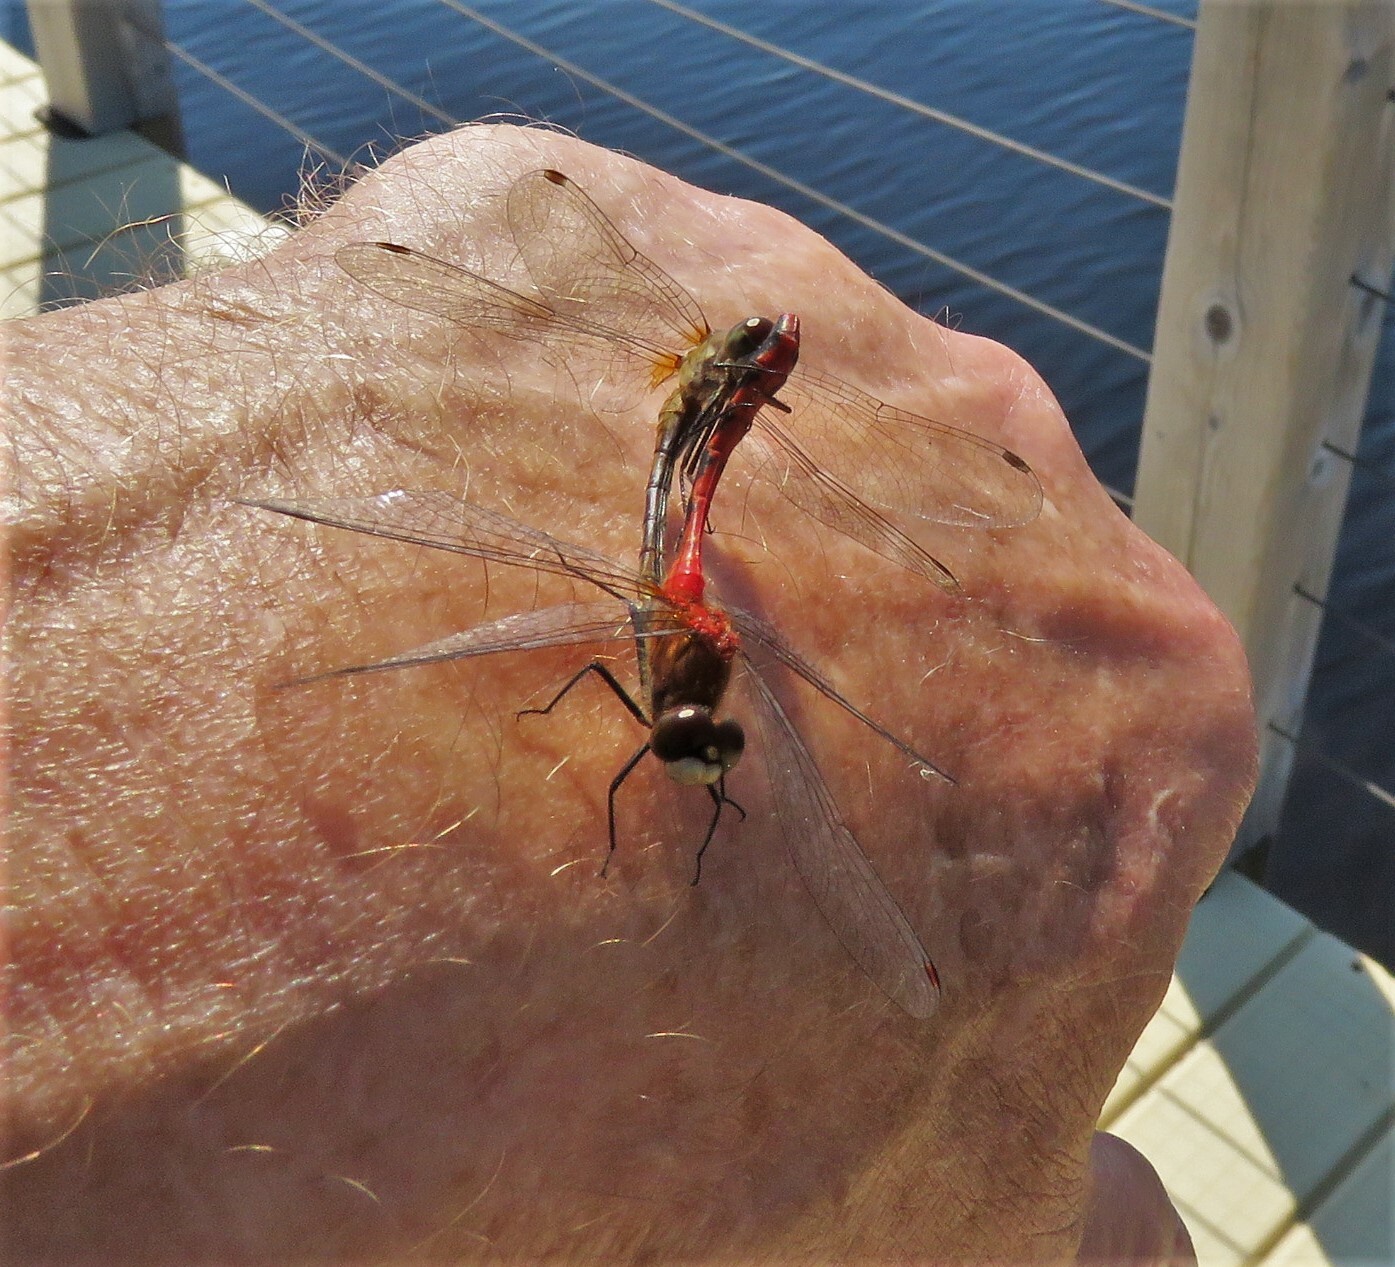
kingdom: Animalia
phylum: Arthropoda
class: Insecta
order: Odonata
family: Libellulidae
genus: Sympetrum
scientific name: Sympetrum obtrusum
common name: White-faced meadowhawk
